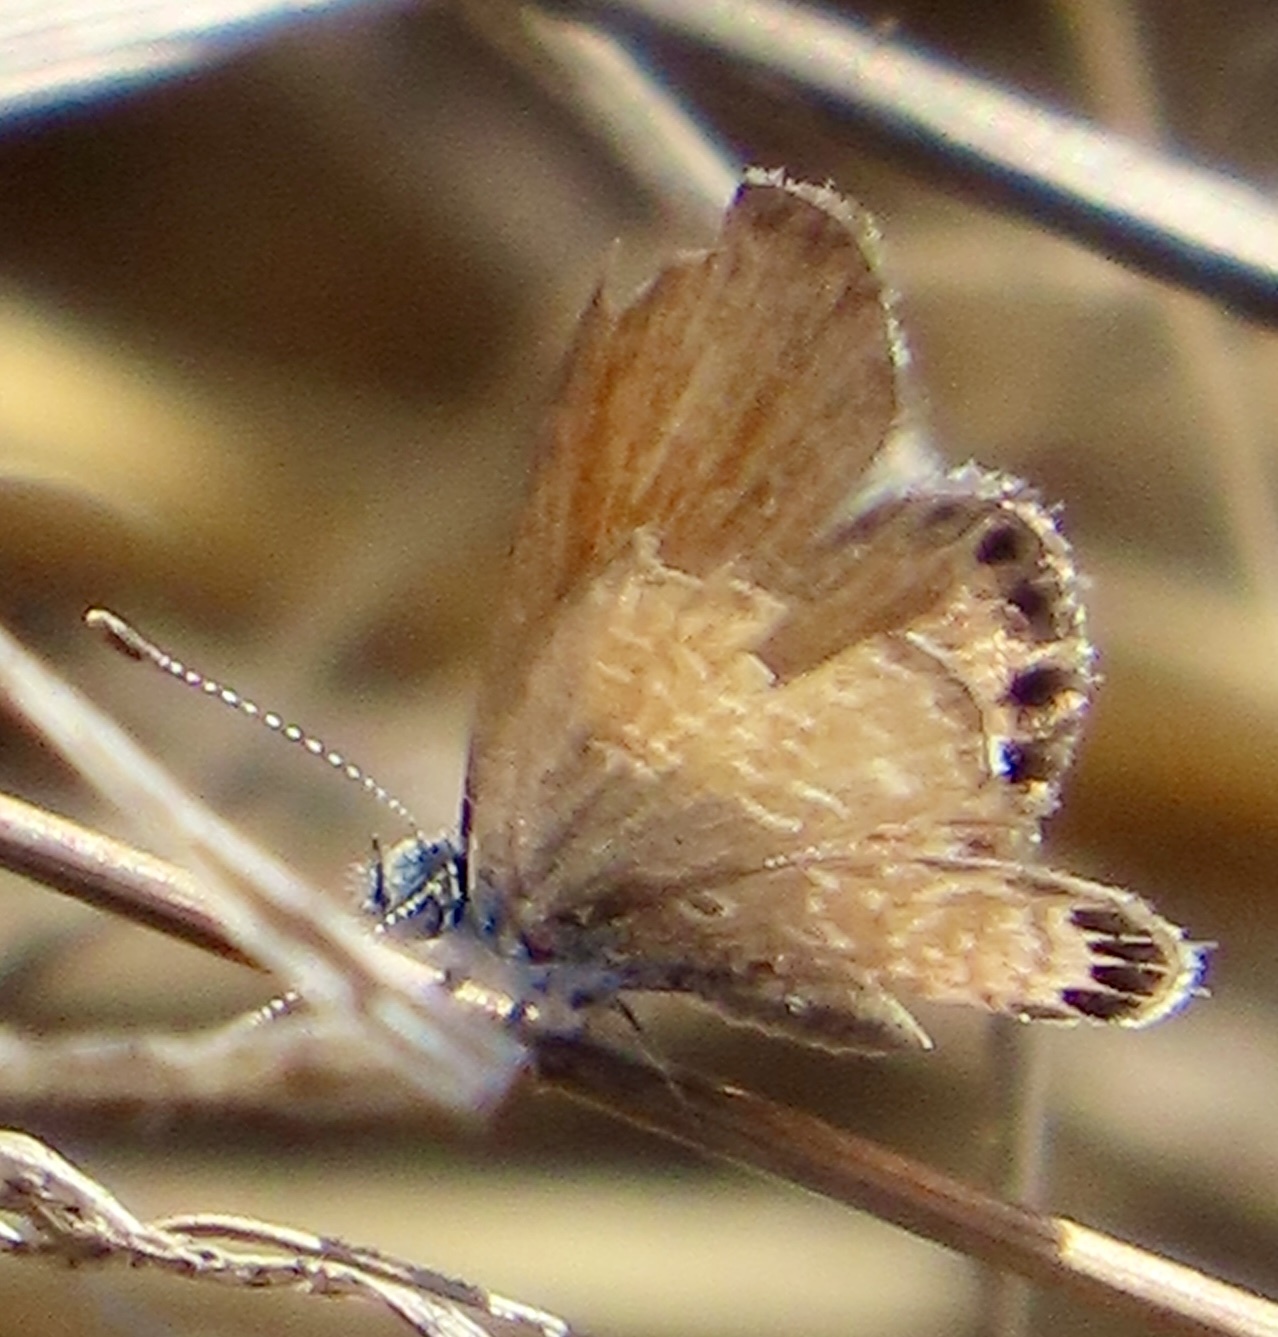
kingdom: Animalia
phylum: Arthropoda
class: Insecta
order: Lepidoptera
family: Lycaenidae
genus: Brephidium
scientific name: Brephidium exilis
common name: Pygmy blue
